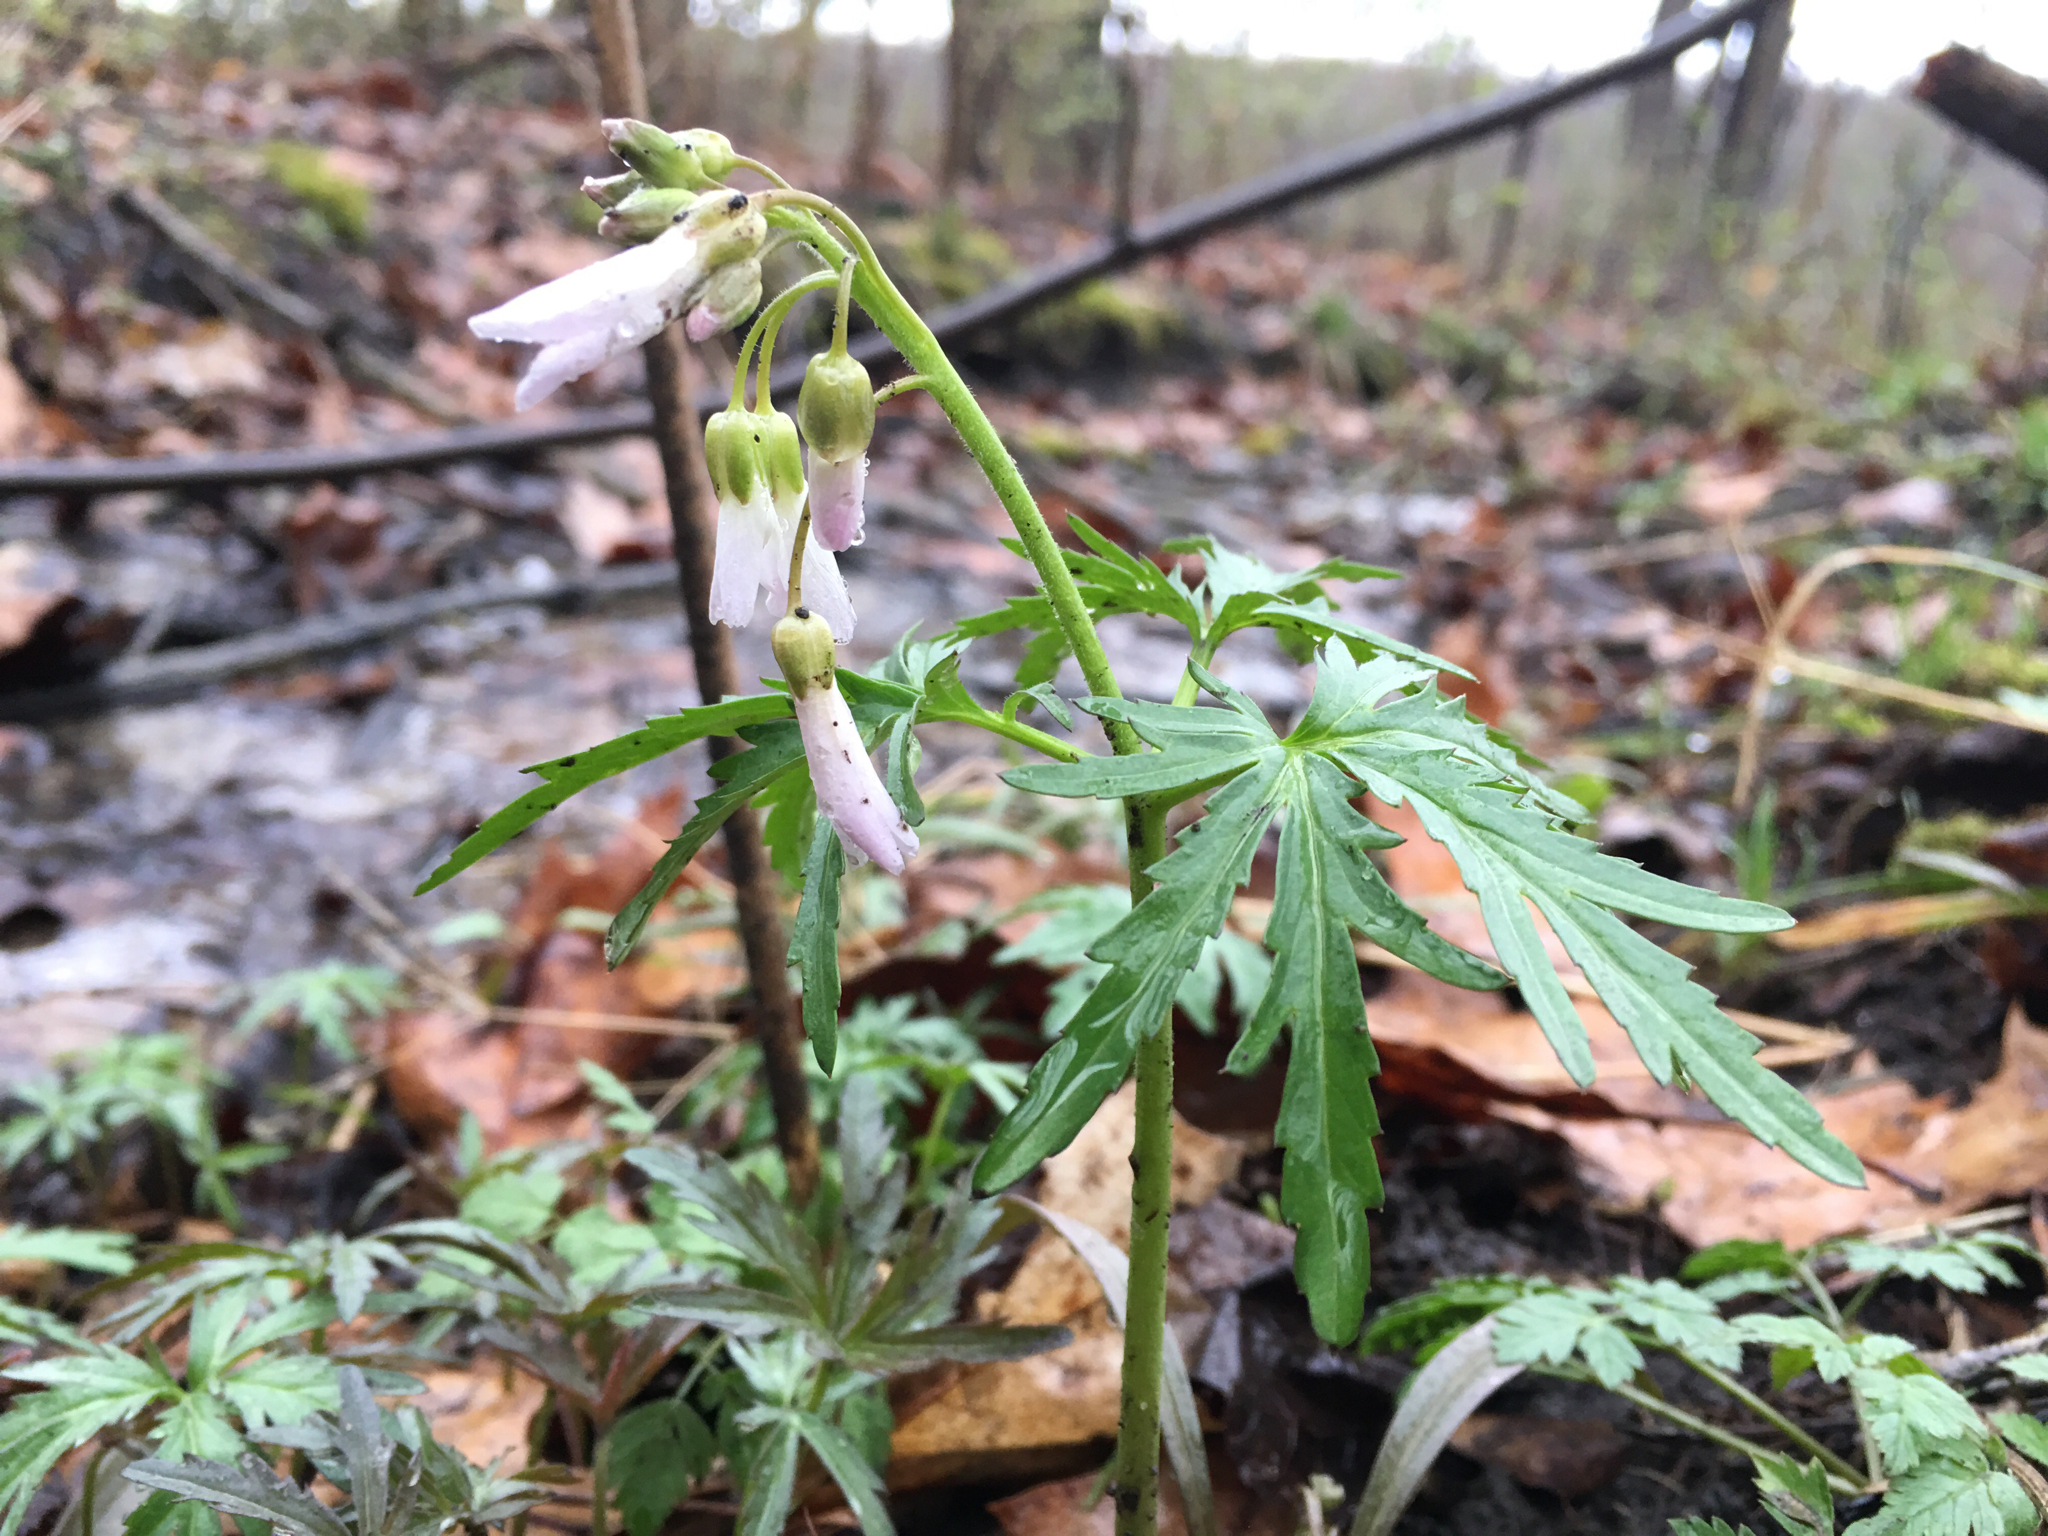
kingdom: Plantae
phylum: Tracheophyta
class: Magnoliopsida
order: Brassicales
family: Brassicaceae
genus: Cardamine
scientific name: Cardamine concatenata
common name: Cut-leaf toothcup
